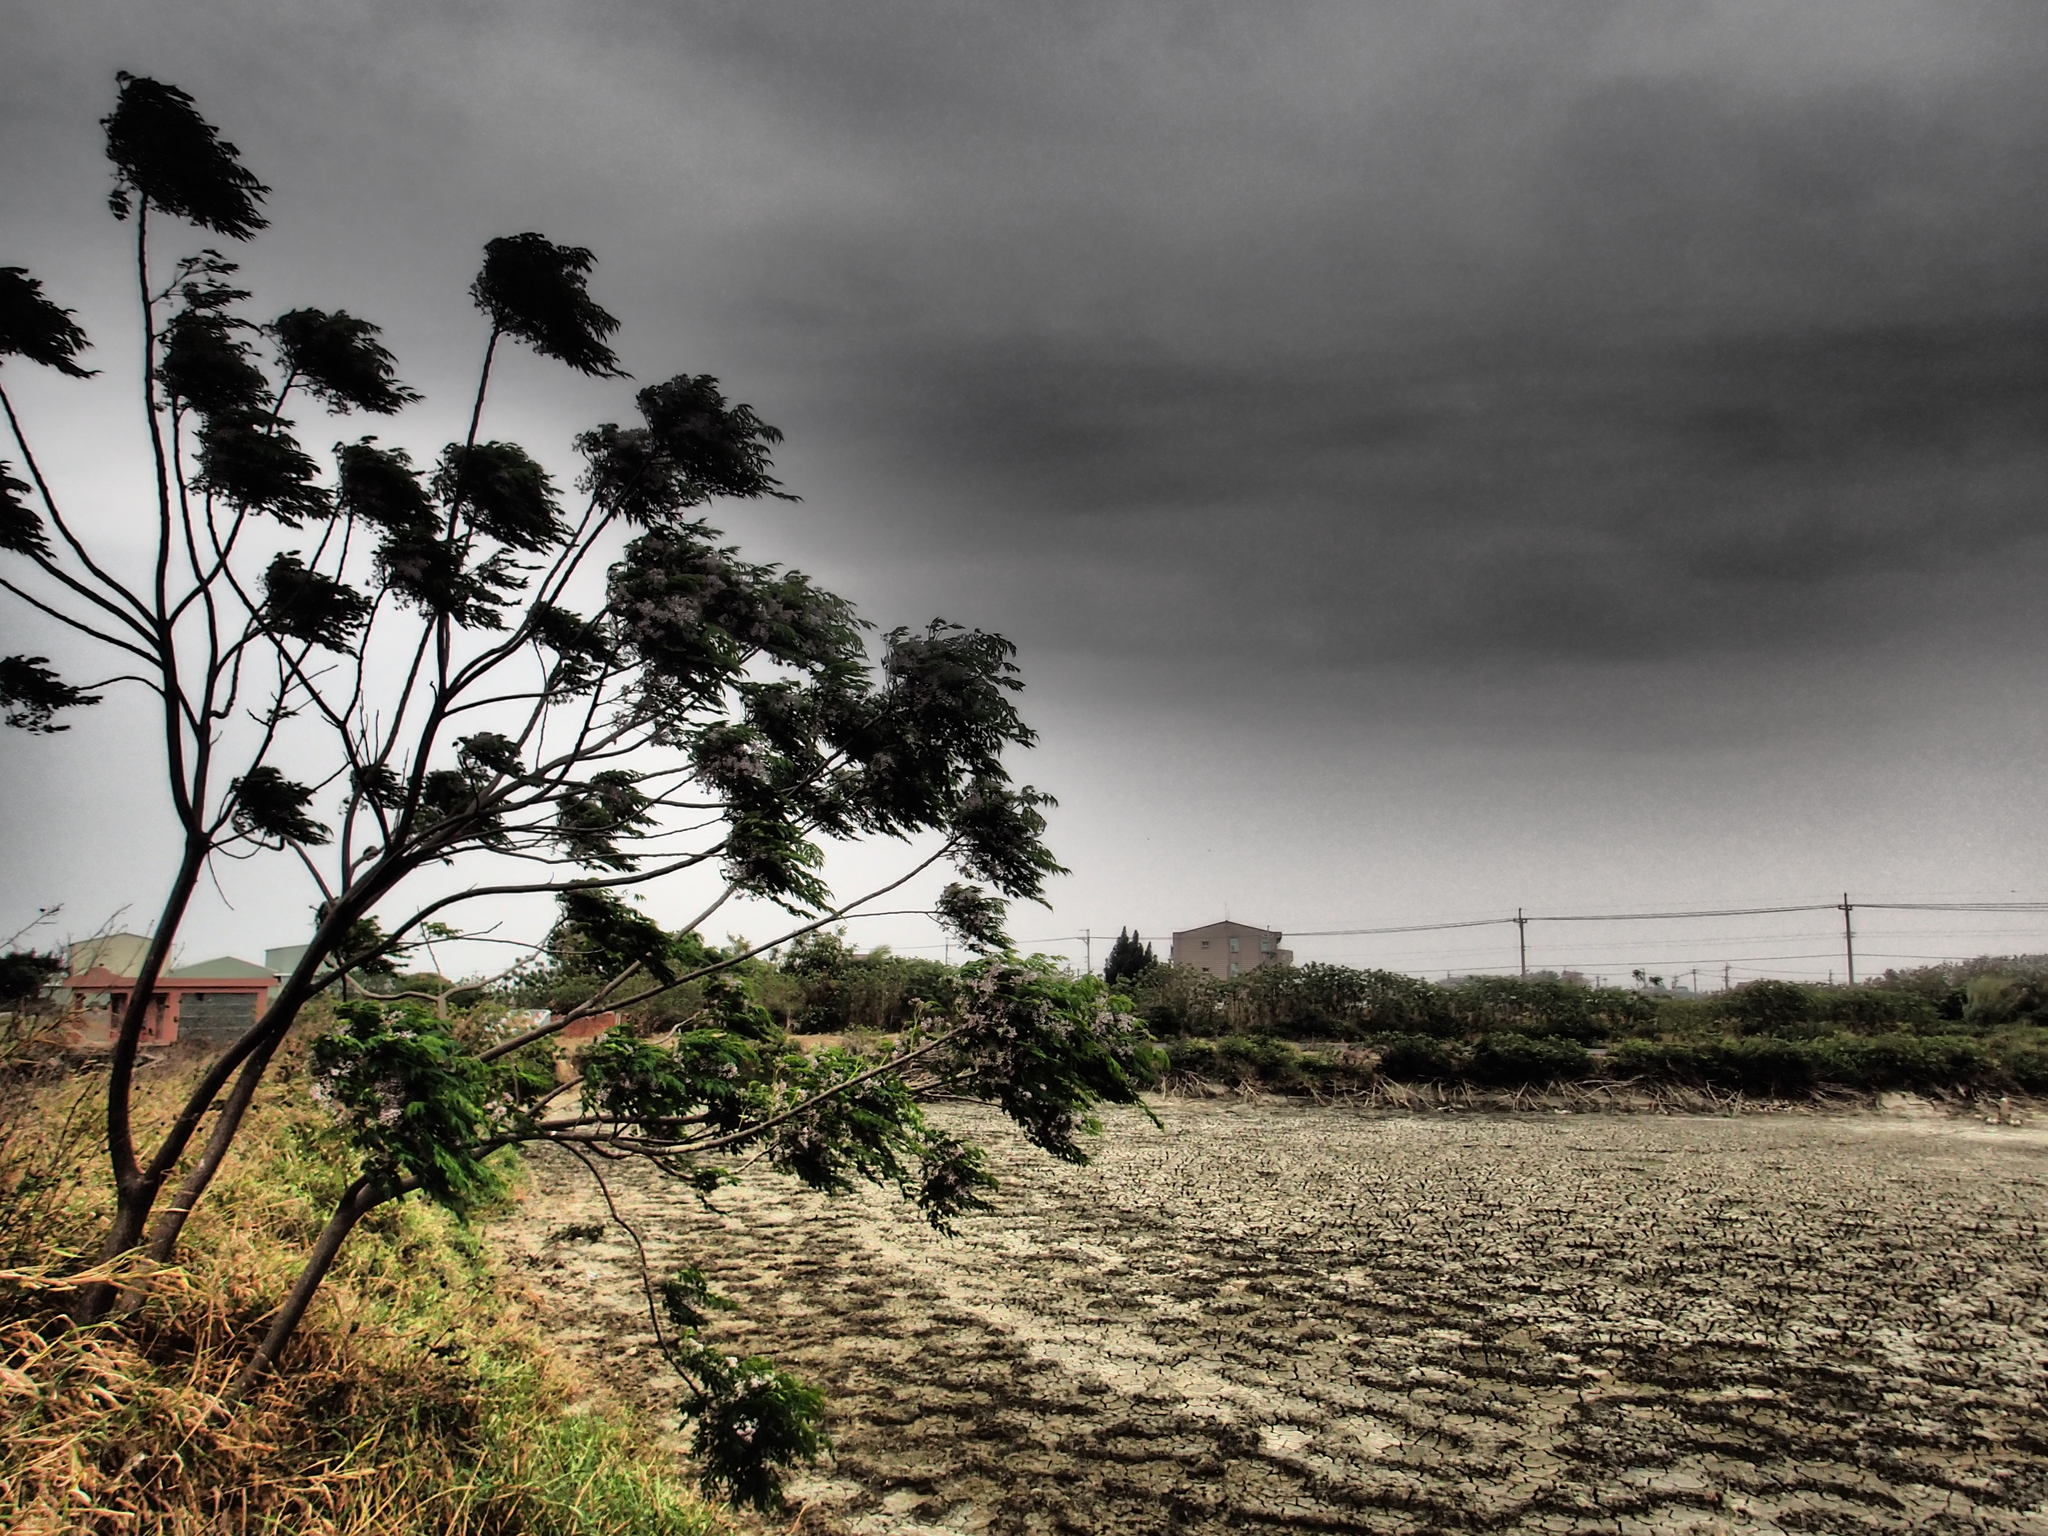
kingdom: Plantae
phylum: Tracheophyta
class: Magnoliopsida
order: Sapindales
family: Meliaceae
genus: Melia
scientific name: Melia azedarach
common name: Chinaberrytree
